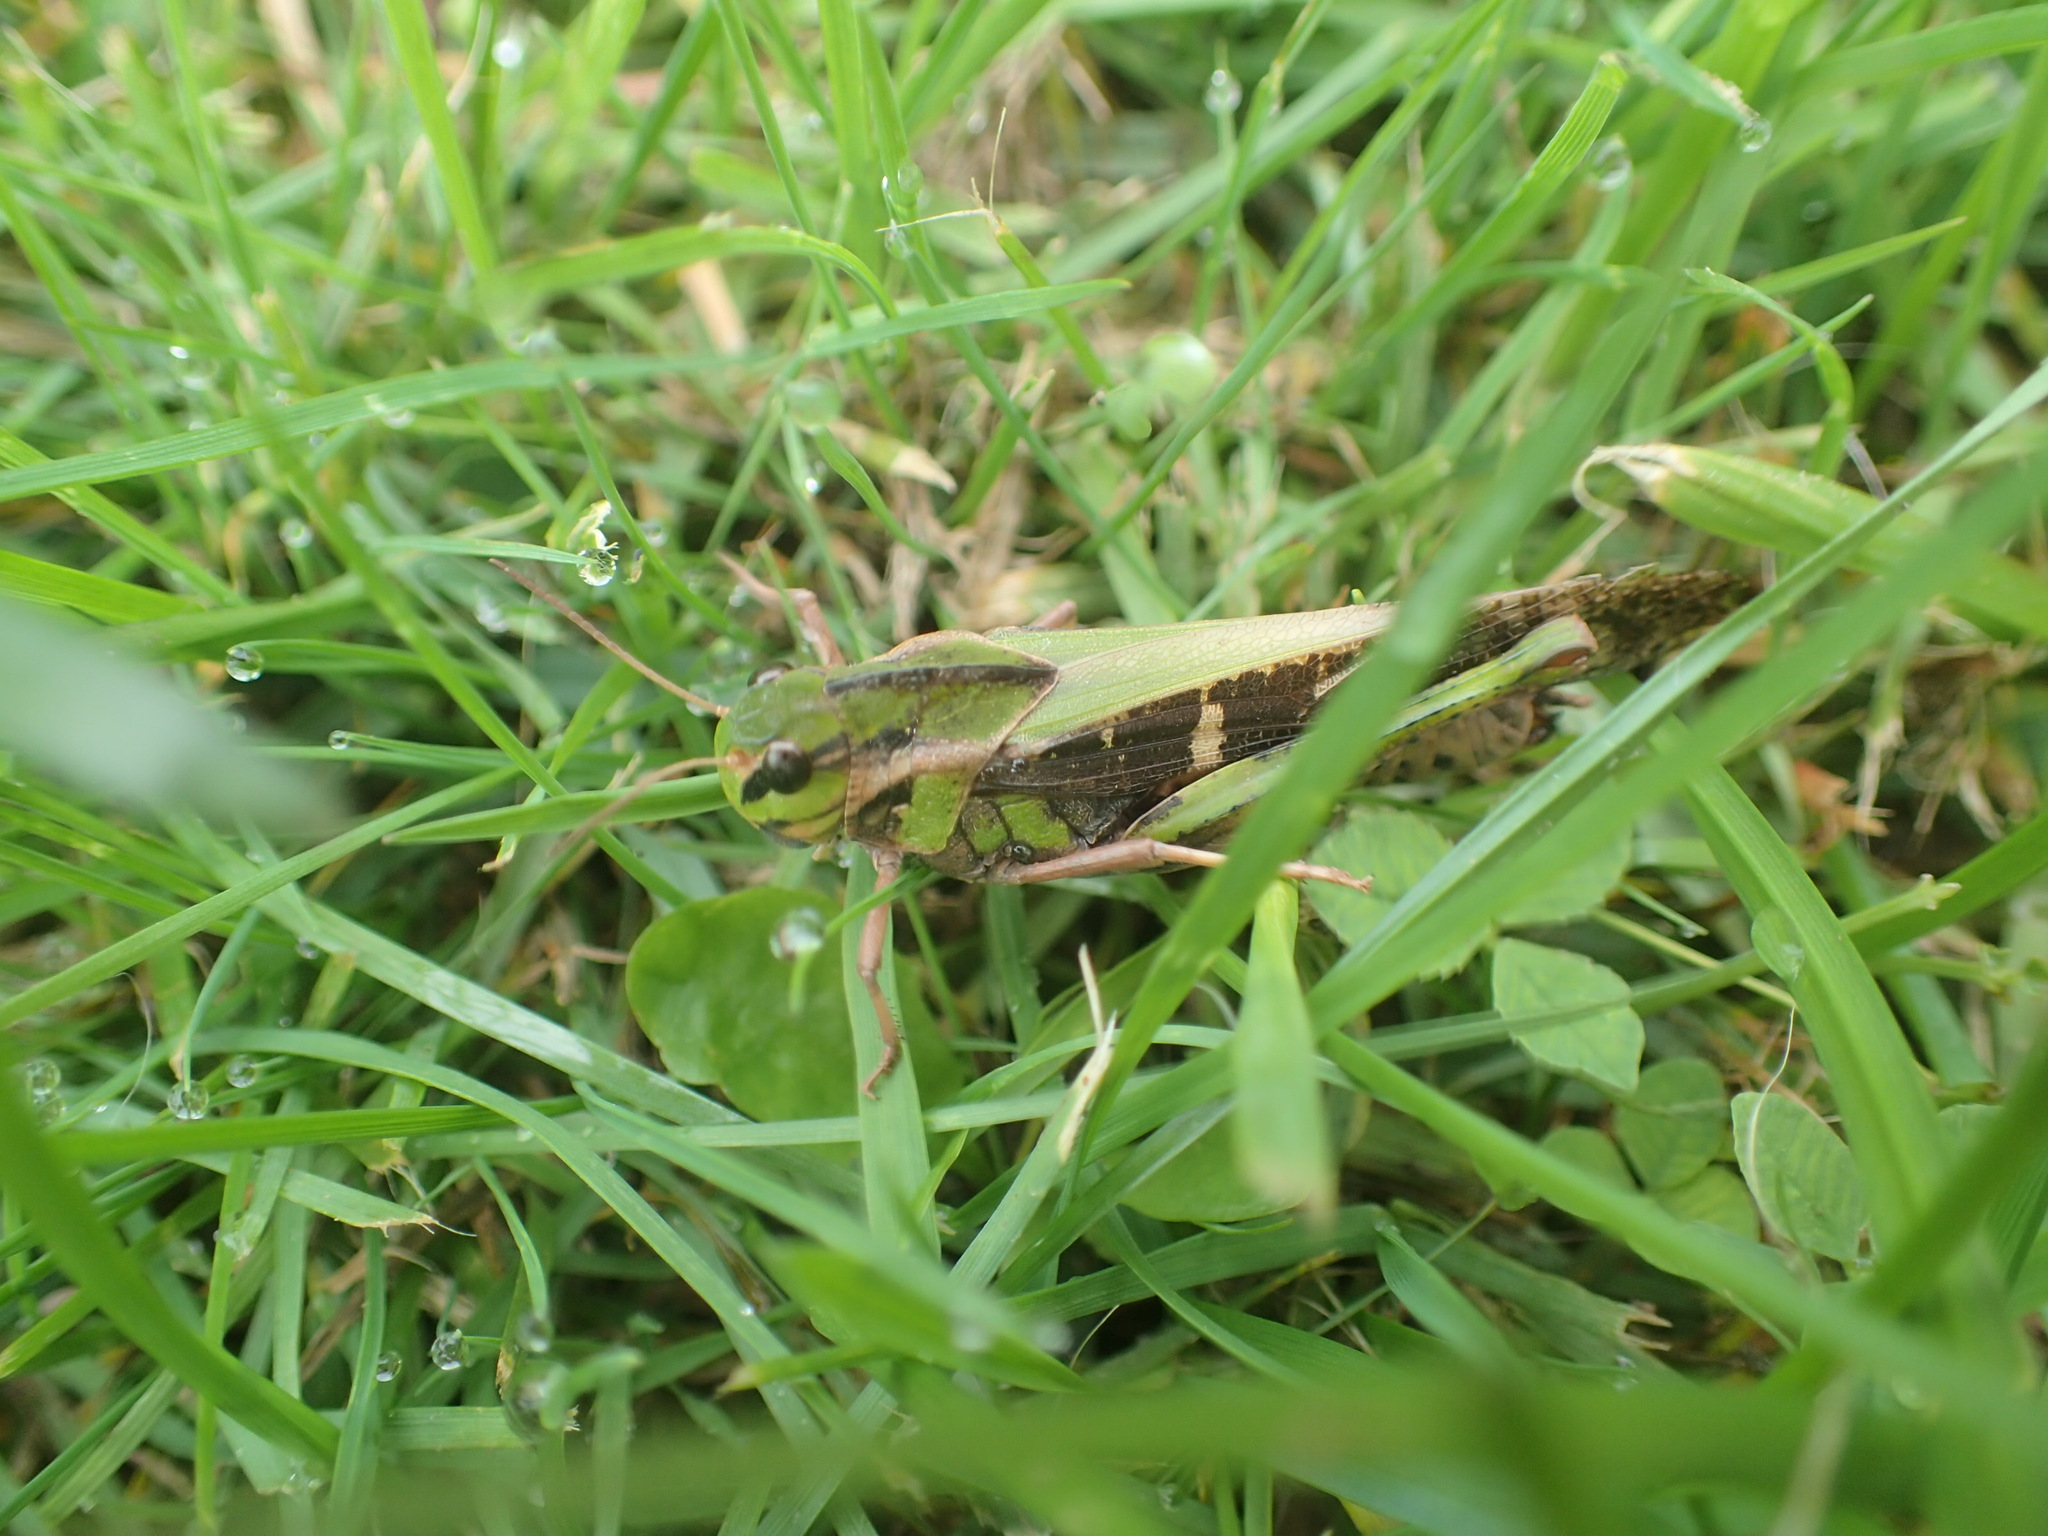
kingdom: Animalia
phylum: Arthropoda
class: Insecta
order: Orthoptera
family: Acrididae
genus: Gastrimargus
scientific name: Gastrimargus musicus
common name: Yellow-winged locust
